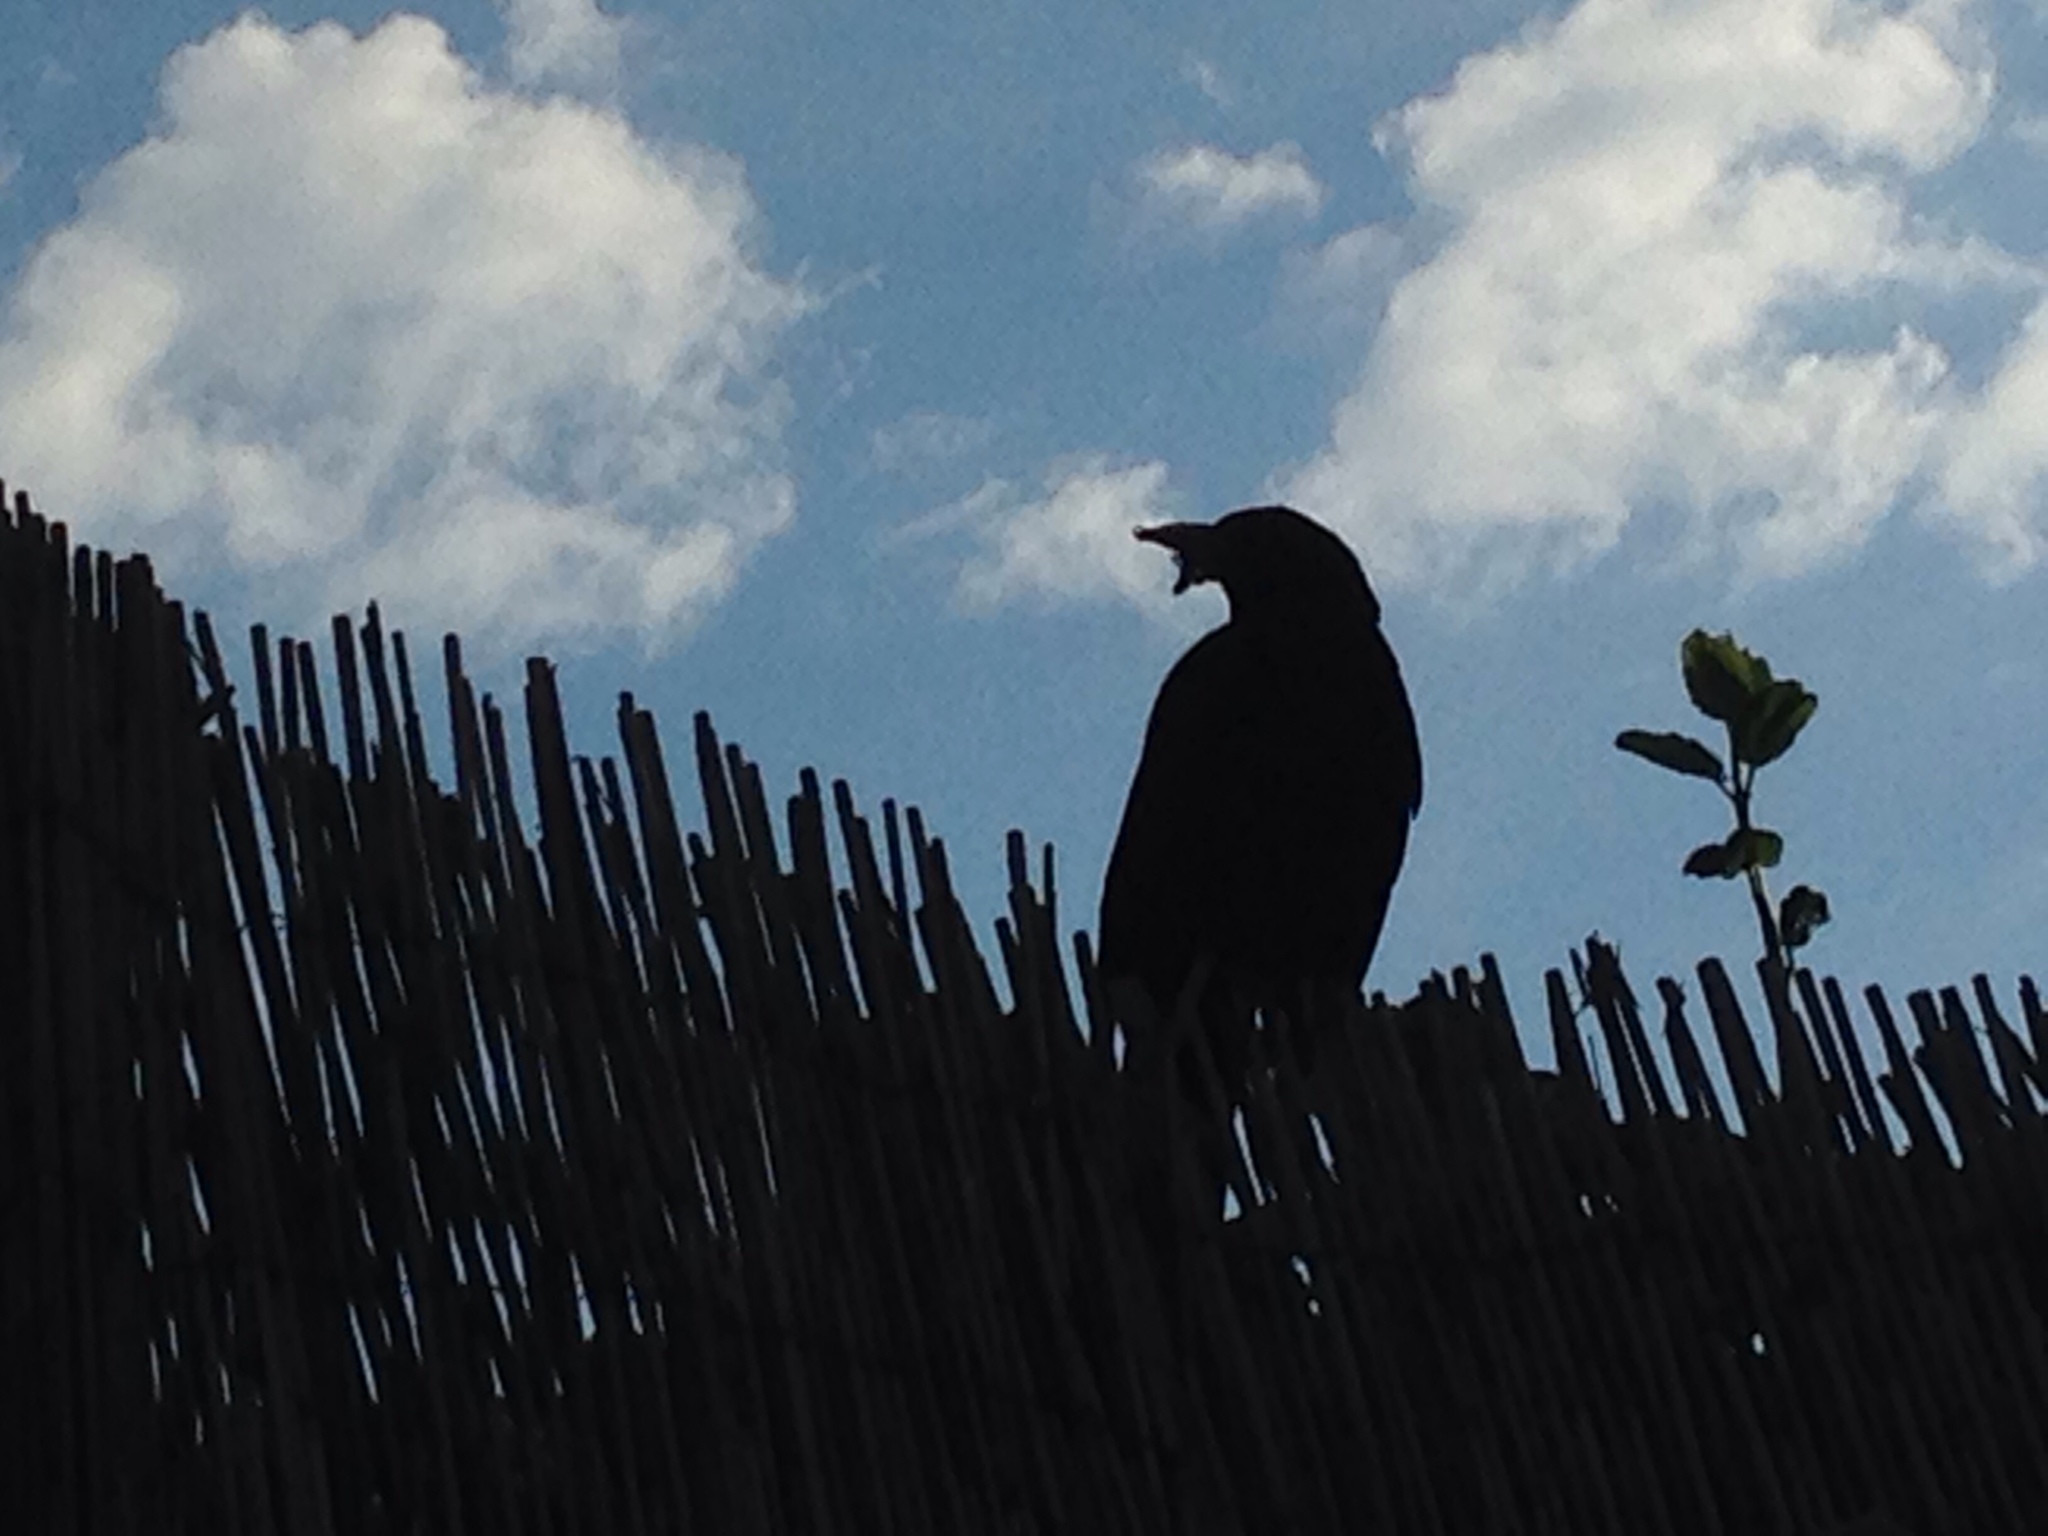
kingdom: Animalia
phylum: Chordata
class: Aves
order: Passeriformes
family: Turdidae
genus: Turdus
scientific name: Turdus merula
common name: Common blackbird
